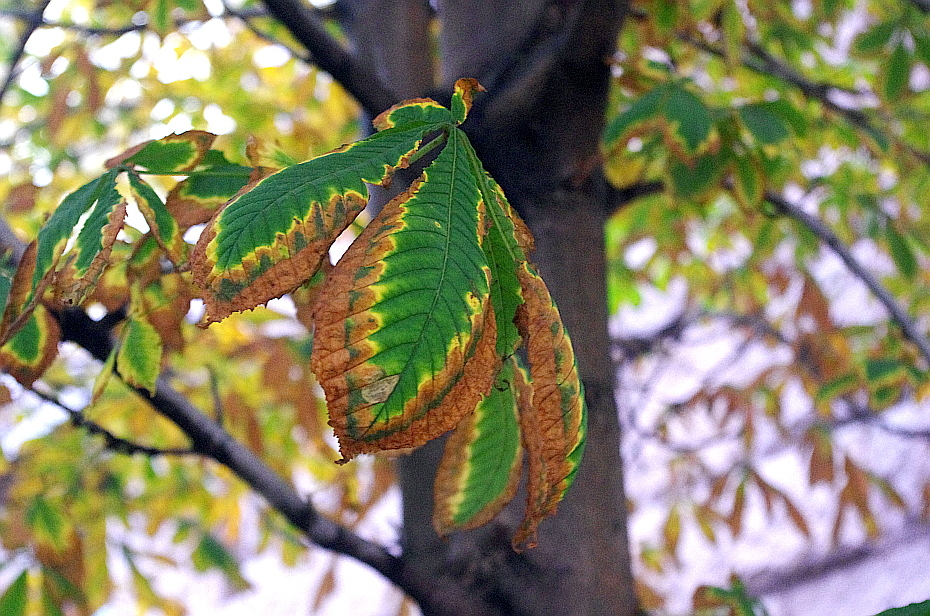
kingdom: Fungi
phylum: Ascomycota
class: Dothideomycetes
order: Botryosphaeriales
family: Phyllostictaceae
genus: Phyllosticta
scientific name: Phyllosticta paviae
